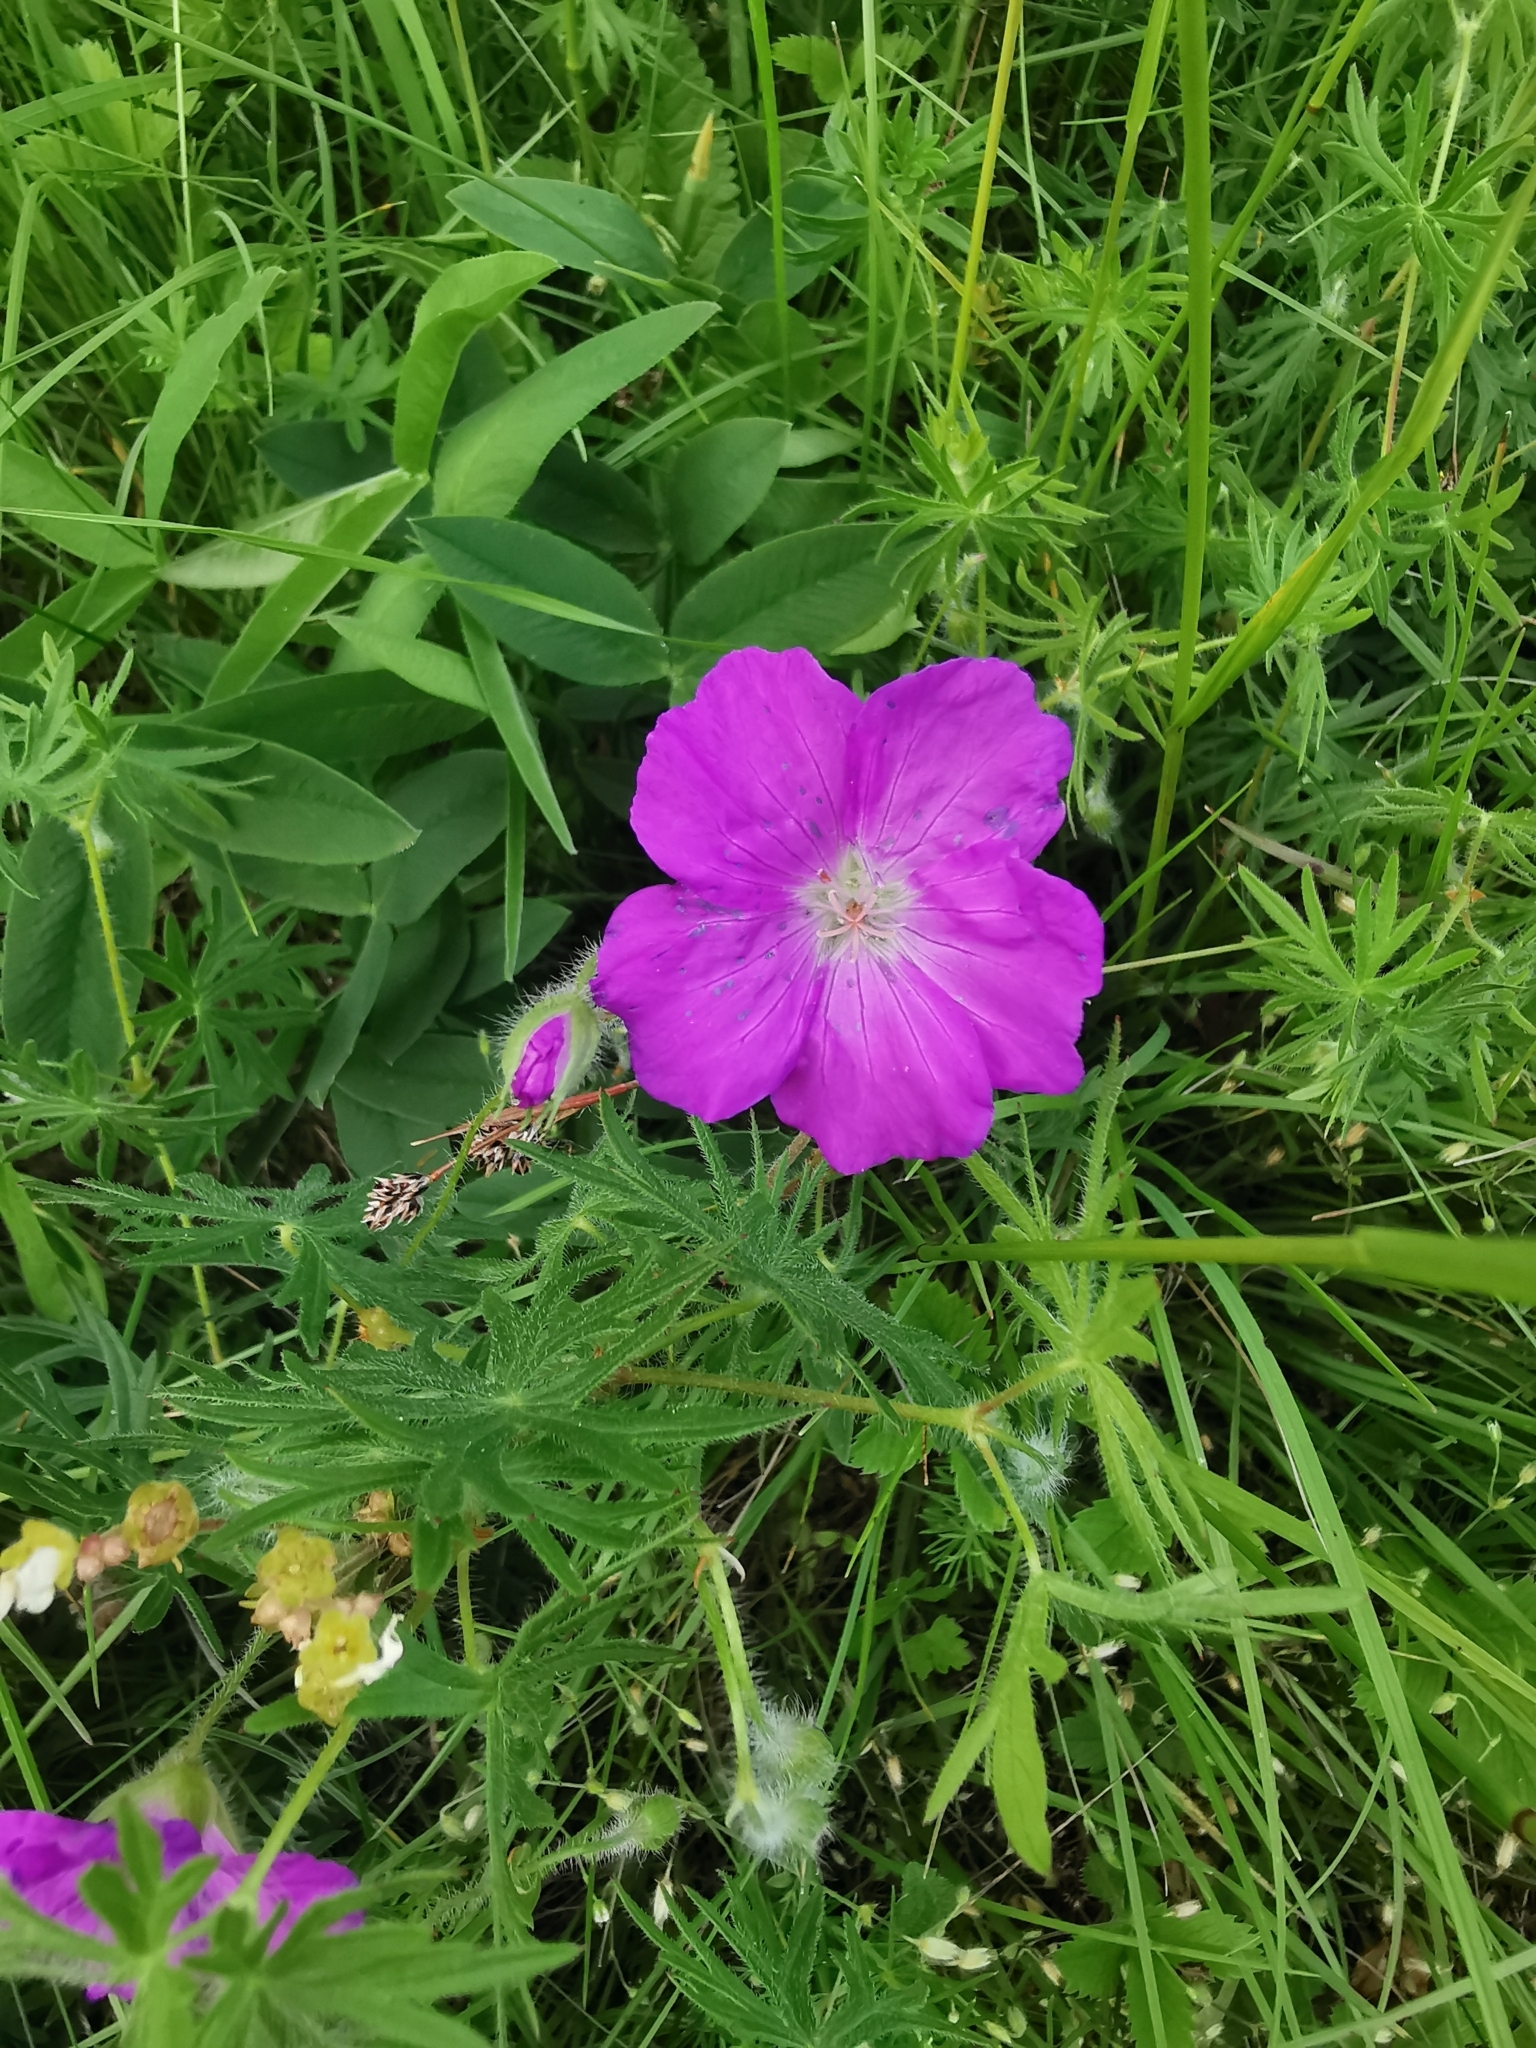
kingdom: Plantae
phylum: Tracheophyta
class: Magnoliopsida
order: Geraniales
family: Geraniaceae
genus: Geranium
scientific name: Geranium sanguineum
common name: Bloody crane's-bill
